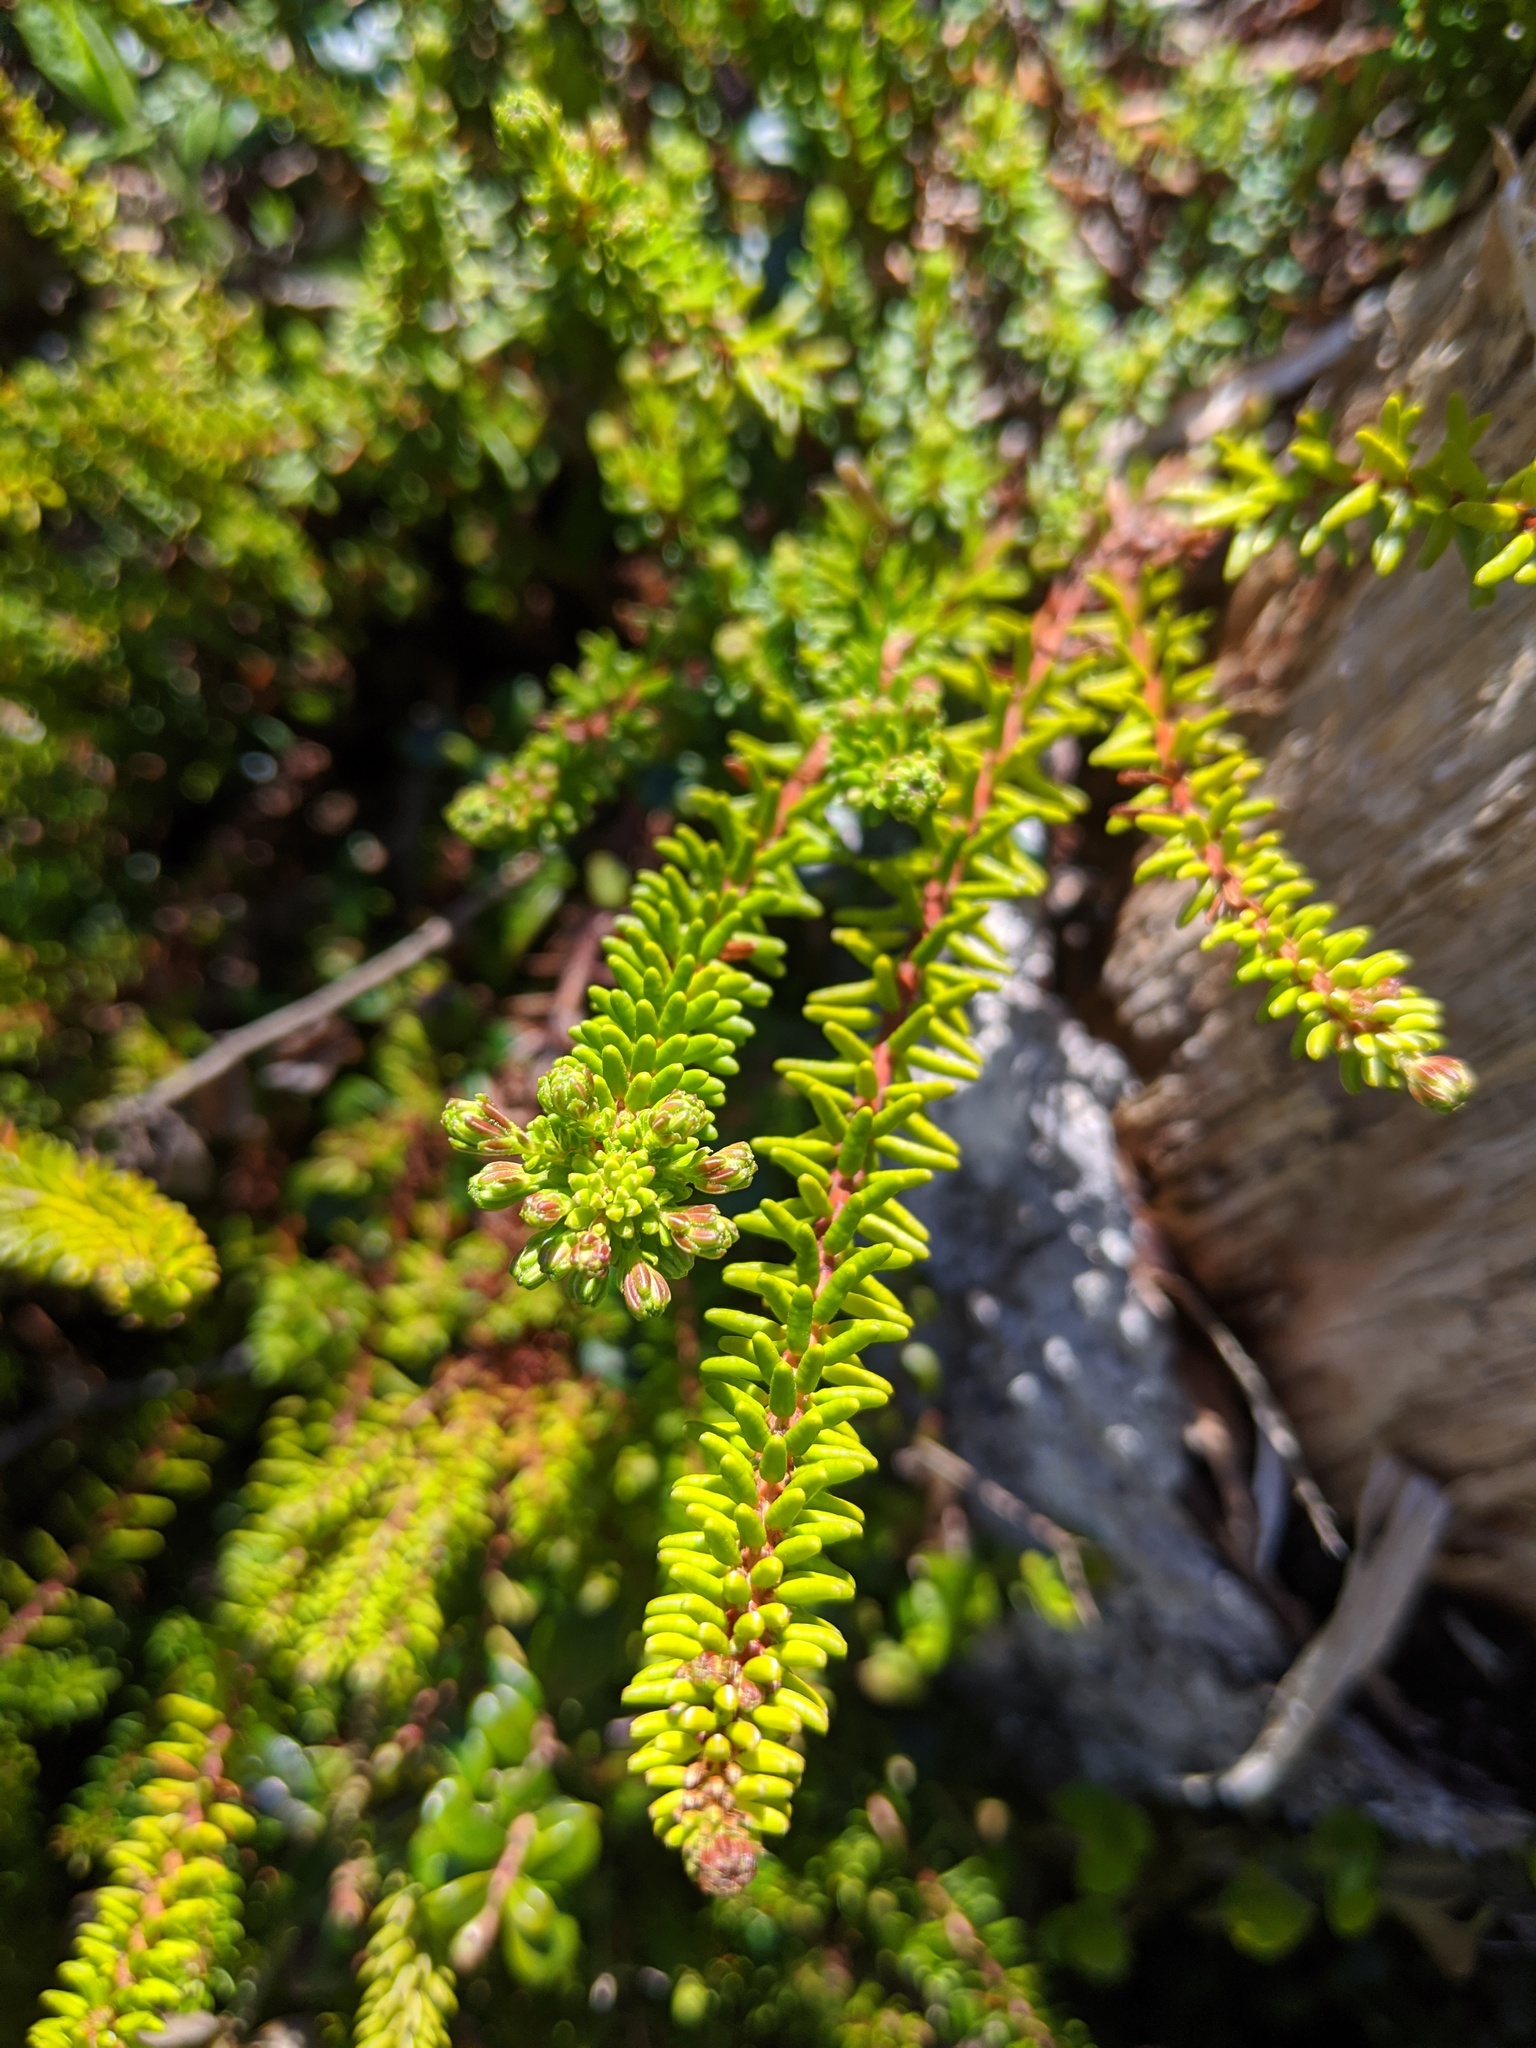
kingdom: Plantae
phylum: Tracheophyta
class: Magnoliopsida
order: Ericales
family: Ericaceae
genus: Empetrum
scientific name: Empetrum nigrum
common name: Black crowberry
